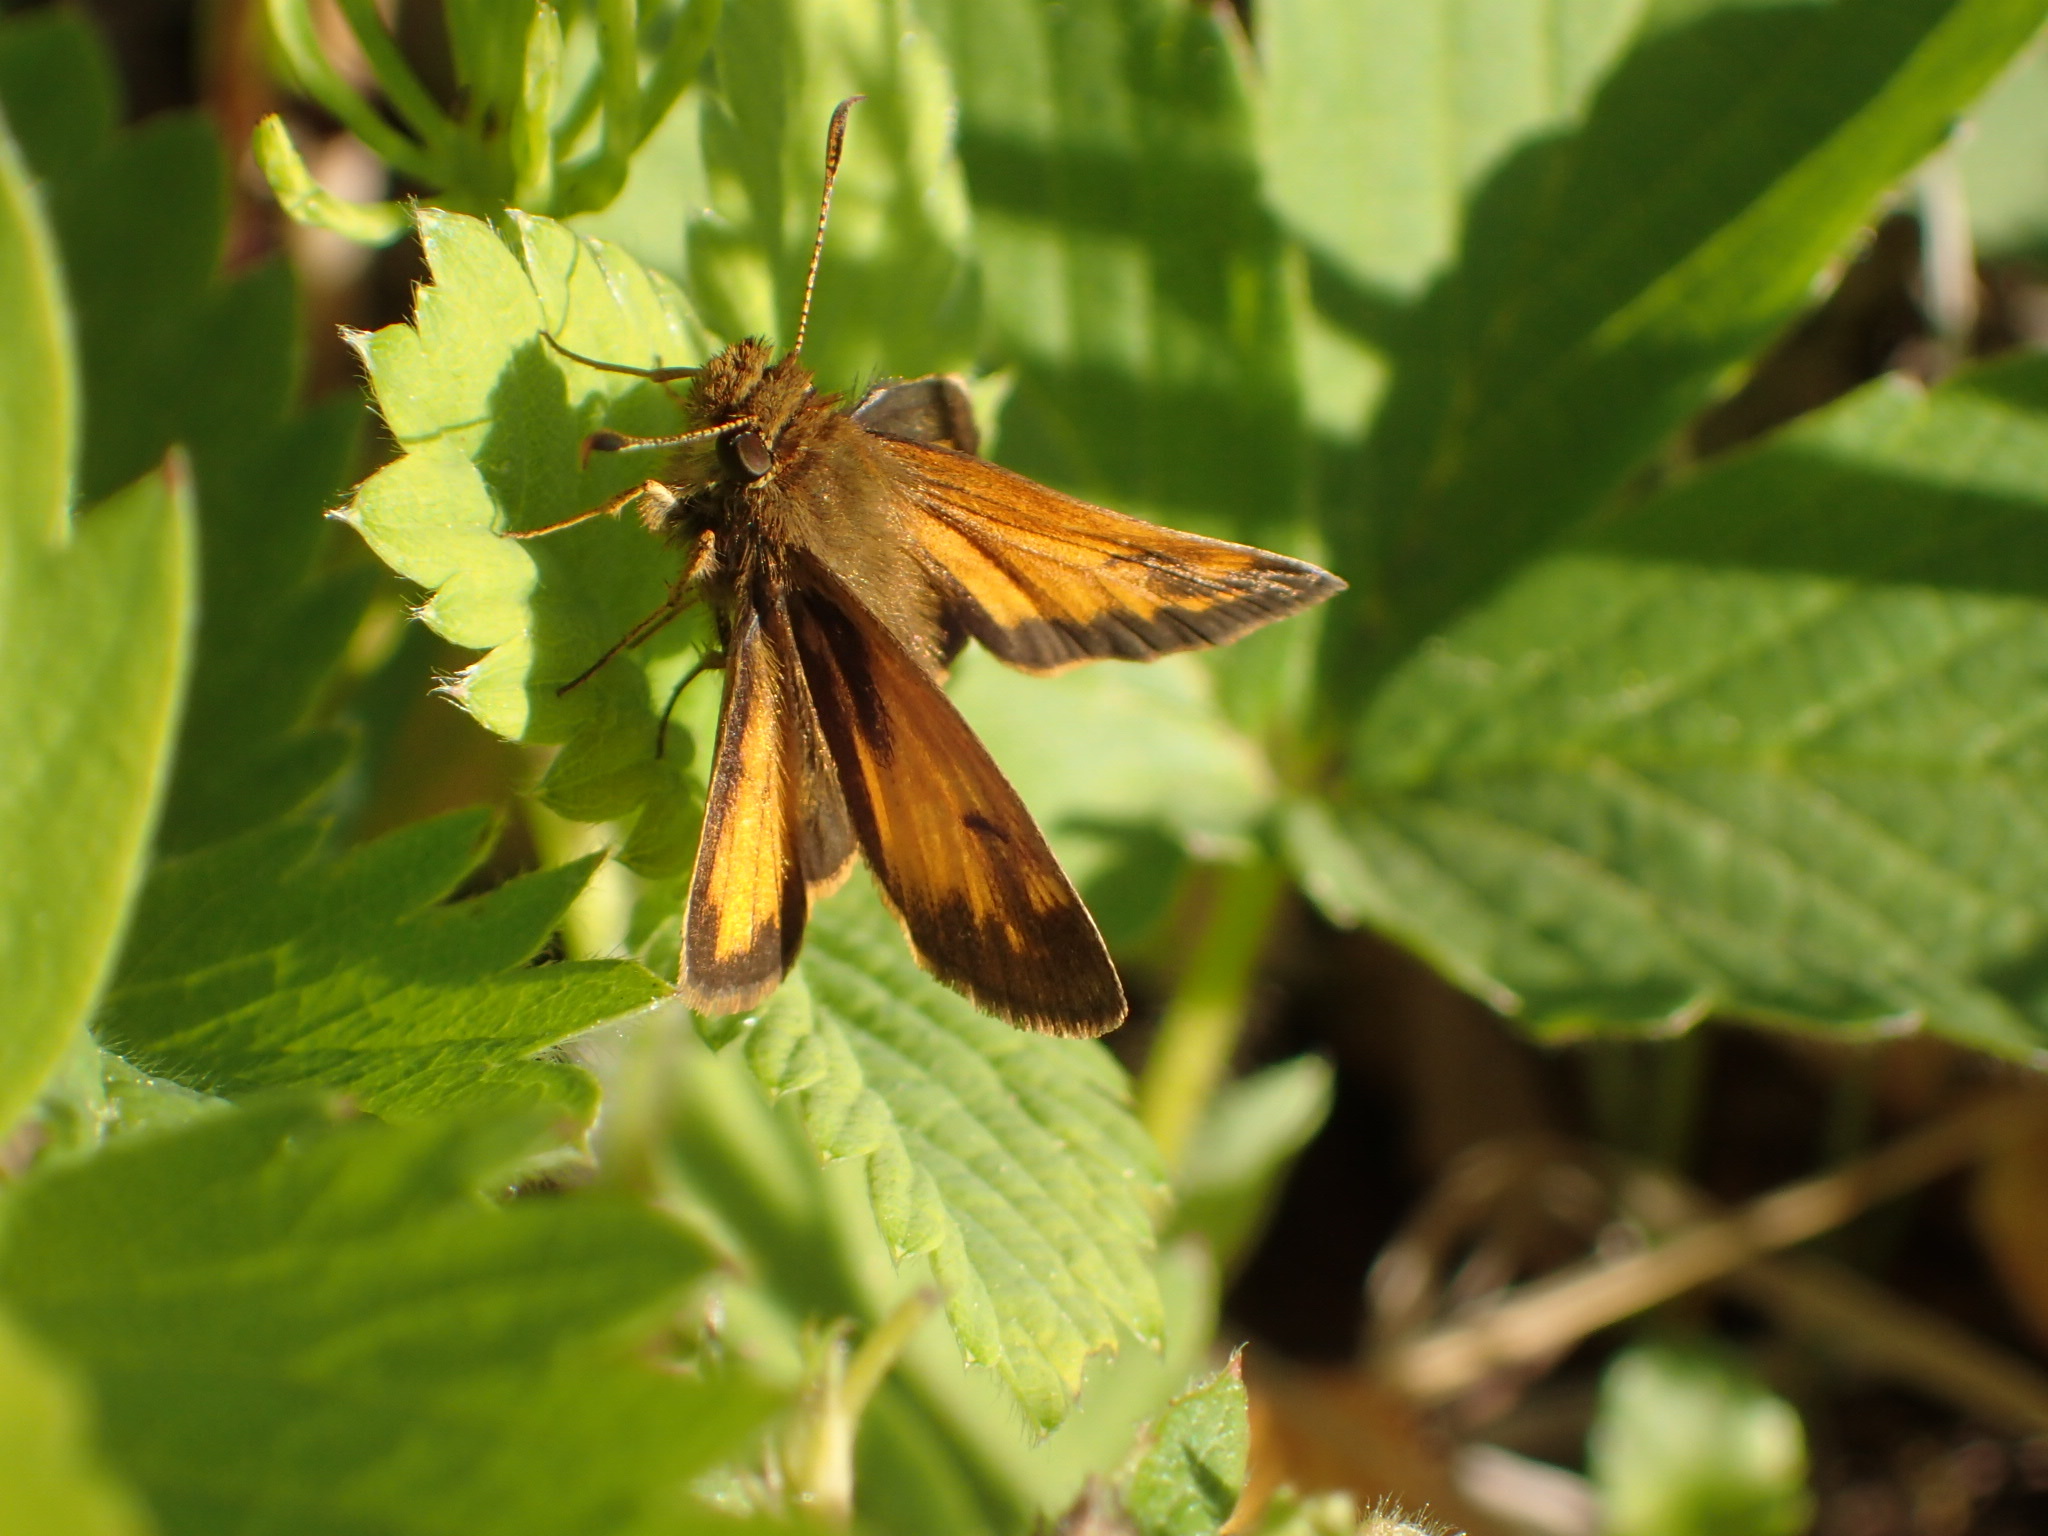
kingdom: Animalia
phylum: Arthropoda
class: Insecta
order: Lepidoptera
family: Hesperiidae
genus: Lon
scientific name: Lon hobomok
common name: Hobomok skipper
